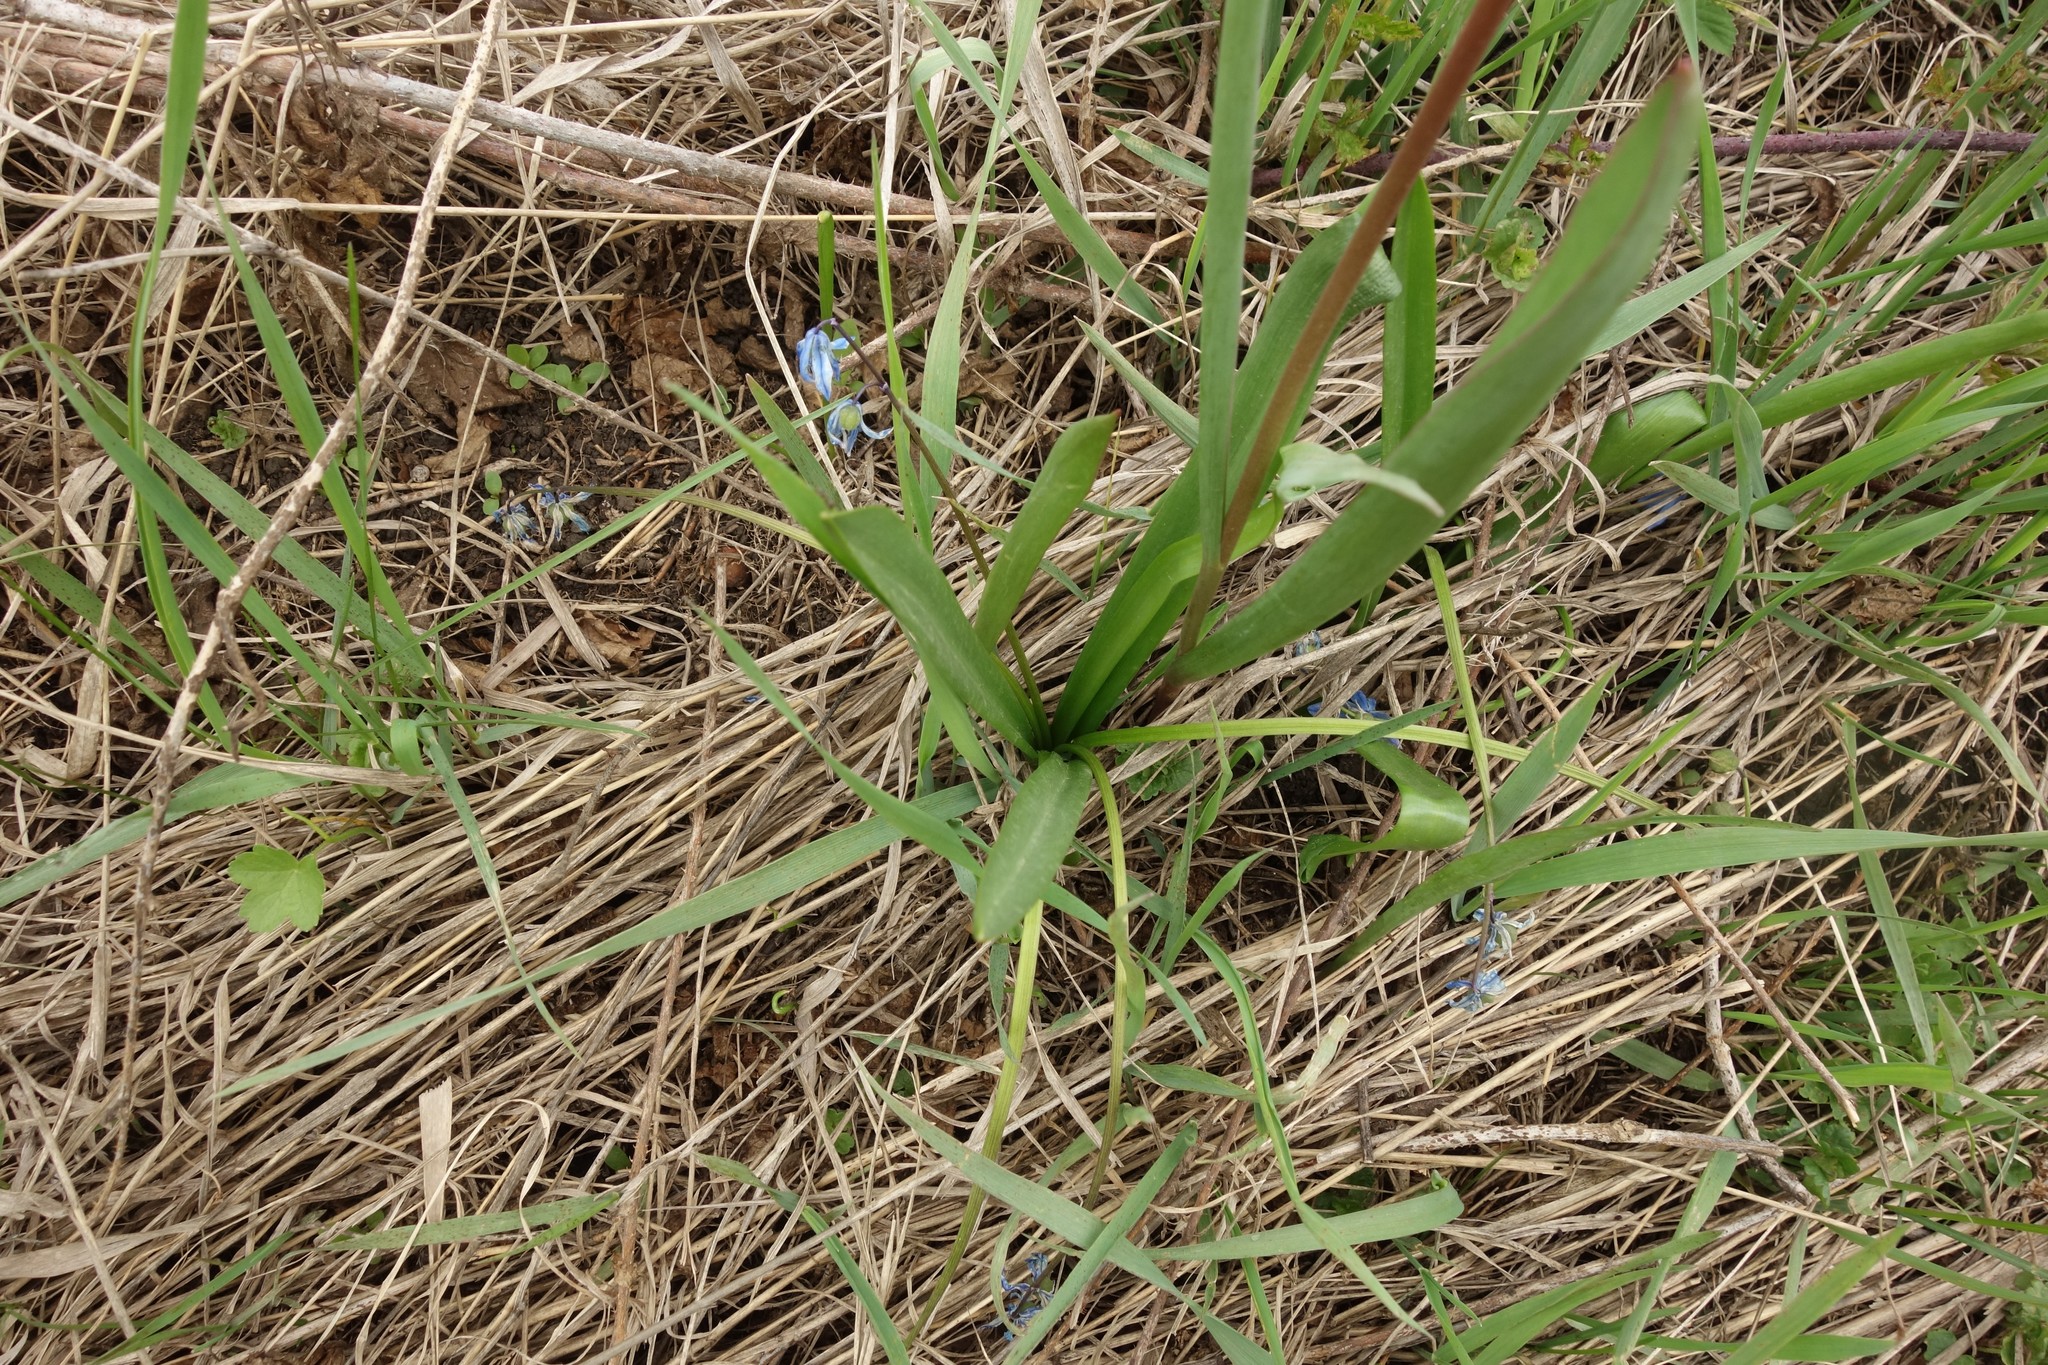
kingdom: Plantae
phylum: Tracheophyta
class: Liliopsida
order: Asparagales
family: Asparagaceae
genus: Scilla
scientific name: Scilla siberica
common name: Siberian squill
